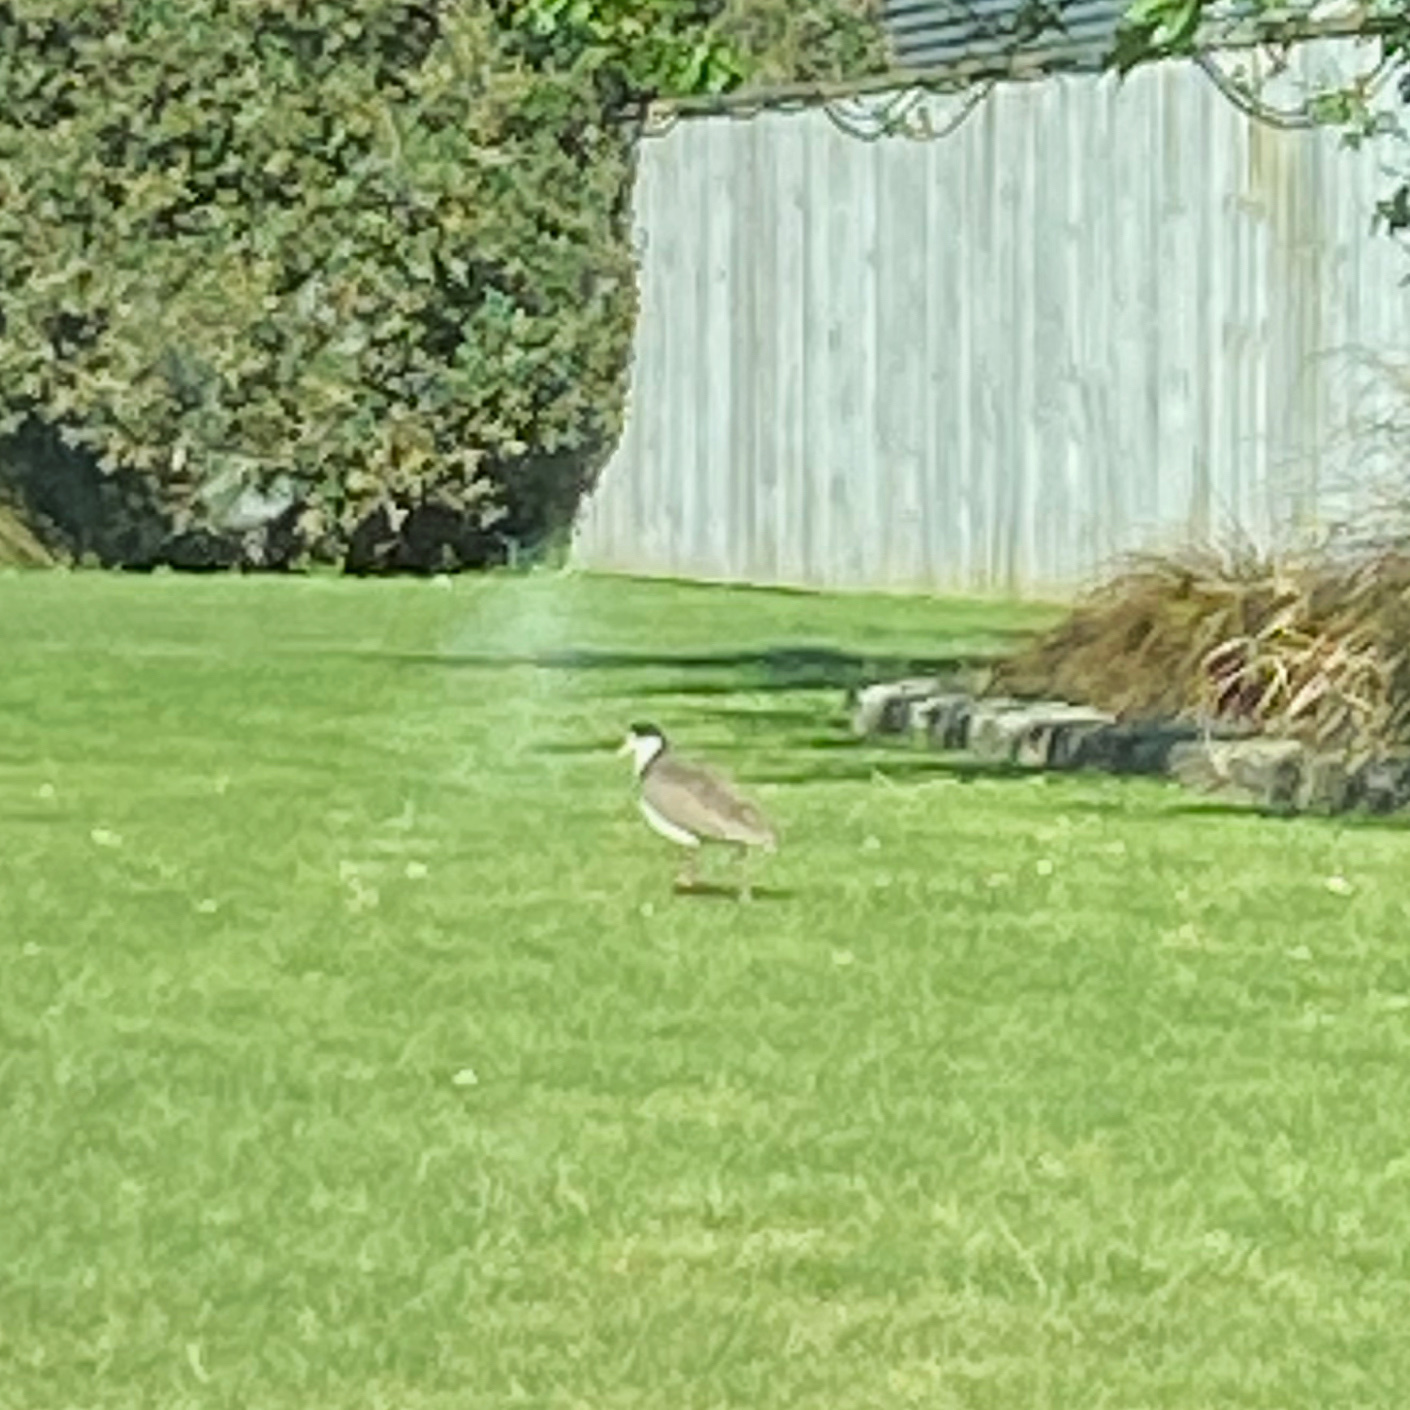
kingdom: Animalia
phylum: Chordata
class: Aves
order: Charadriiformes
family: Charadriidae
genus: Vanellus
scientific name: Vanellus miles
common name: Masked lapwing
